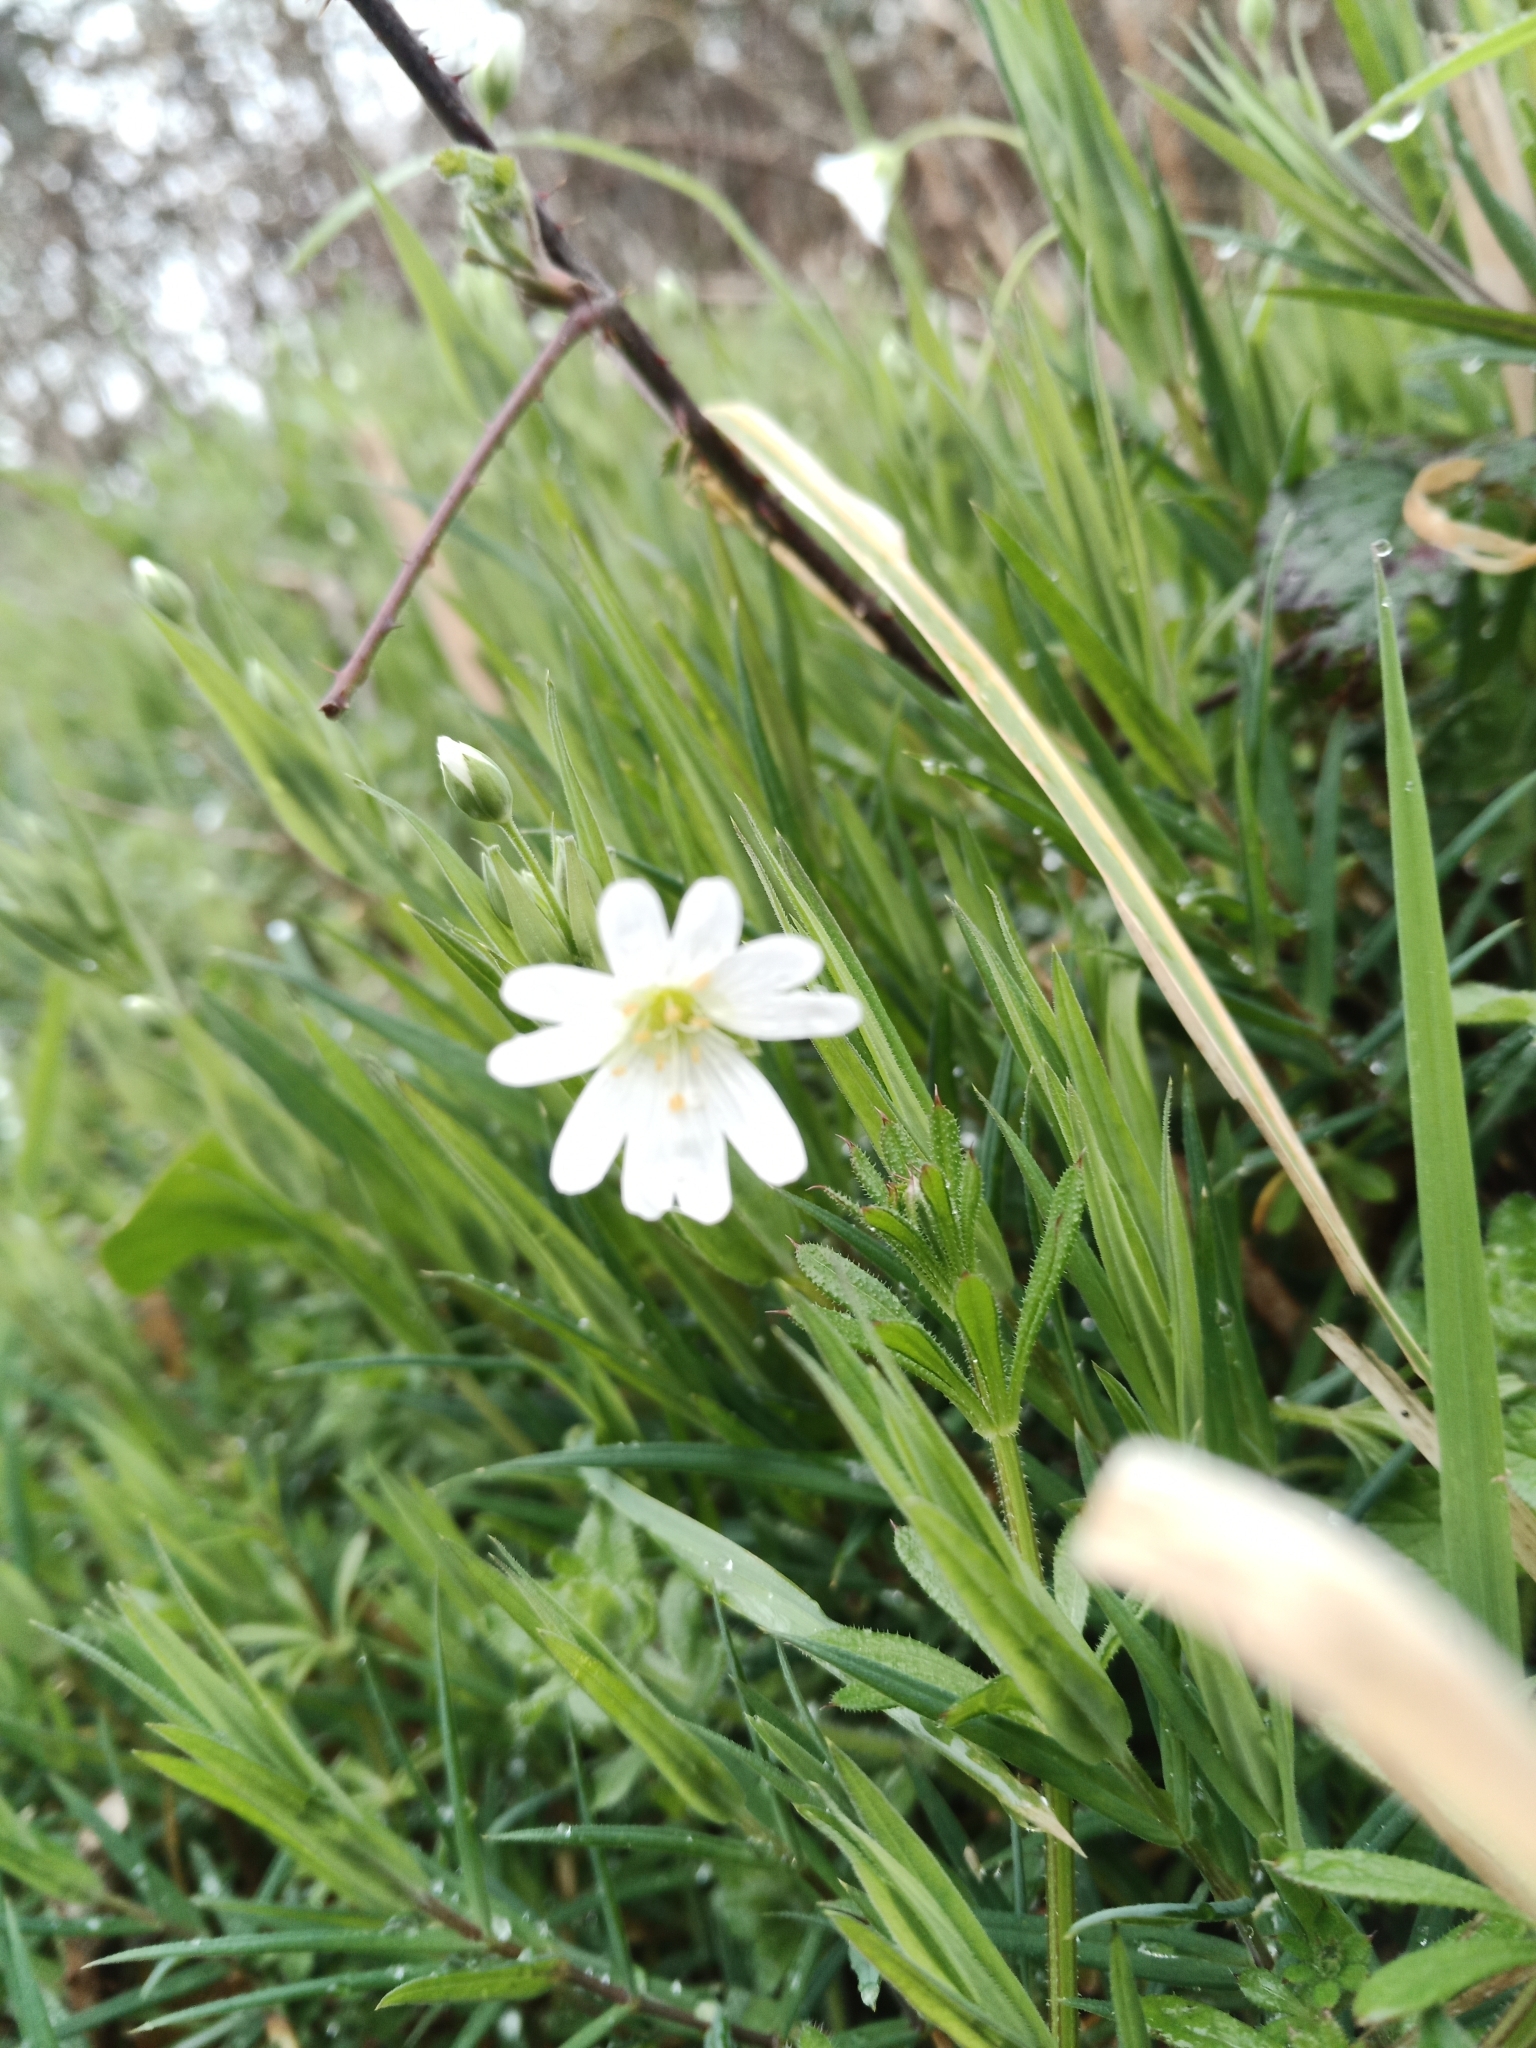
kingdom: Plantae
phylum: Tracheophyta
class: Magnoliopsida
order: Caryophyllales
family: Caryophyllaceae
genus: Rabelera
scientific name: Rabelera holostea
